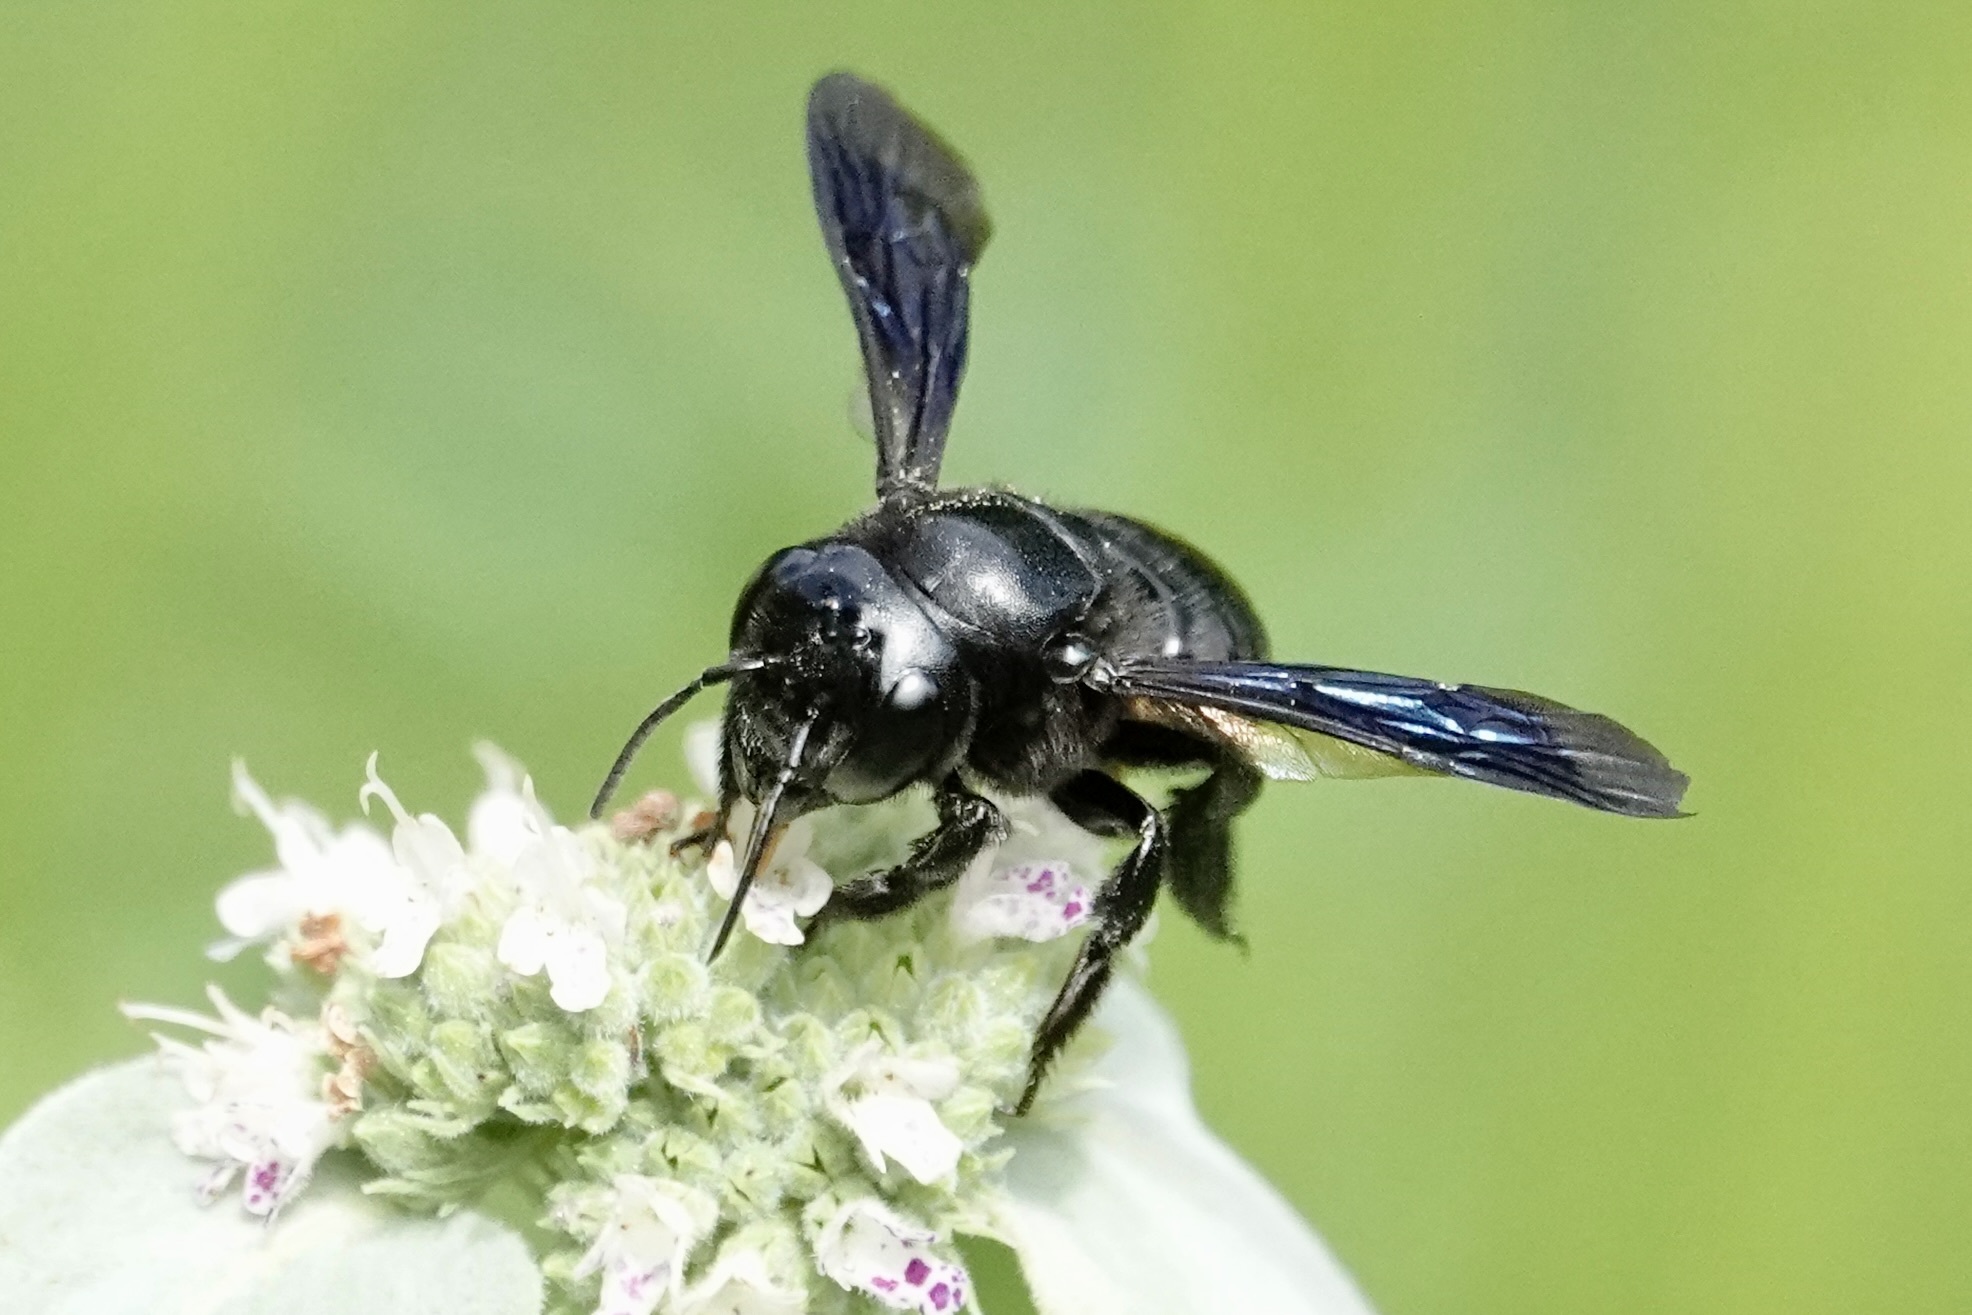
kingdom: Animalia
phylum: Arthropoda
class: Insecta
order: Hymenoptera
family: Megachilidae
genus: Megachile
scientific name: Megachile xylocopoides
